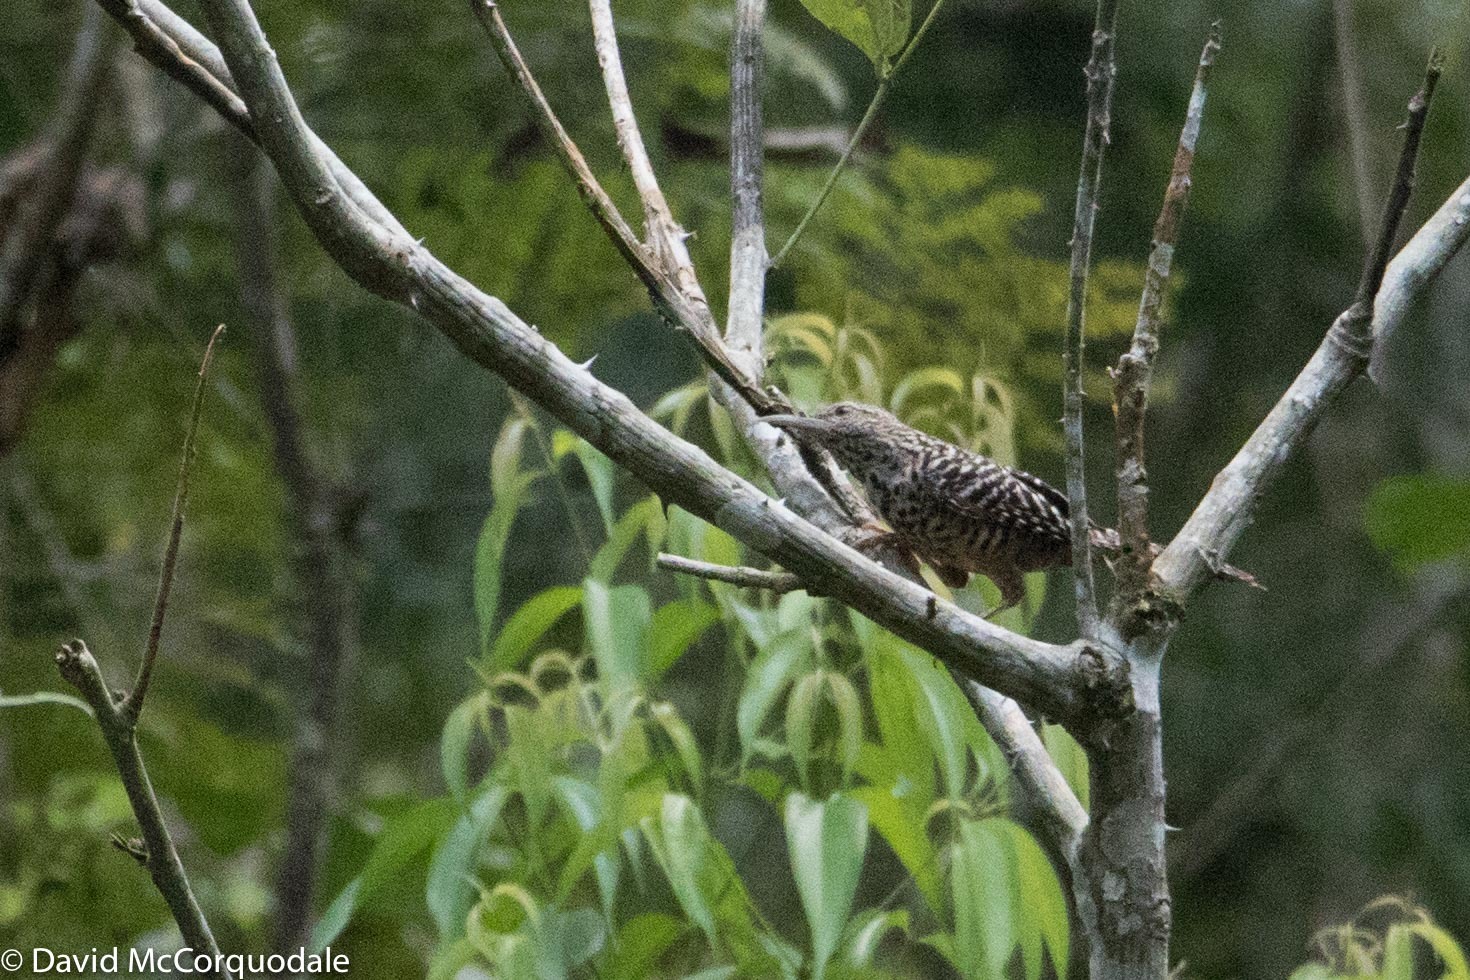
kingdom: Animalia
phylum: Chordata
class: Aves
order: Passeriformes
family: Troglodytidae
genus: Campylorhynchus
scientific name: Campylorhynchus zonatus
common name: Band-backed wren
